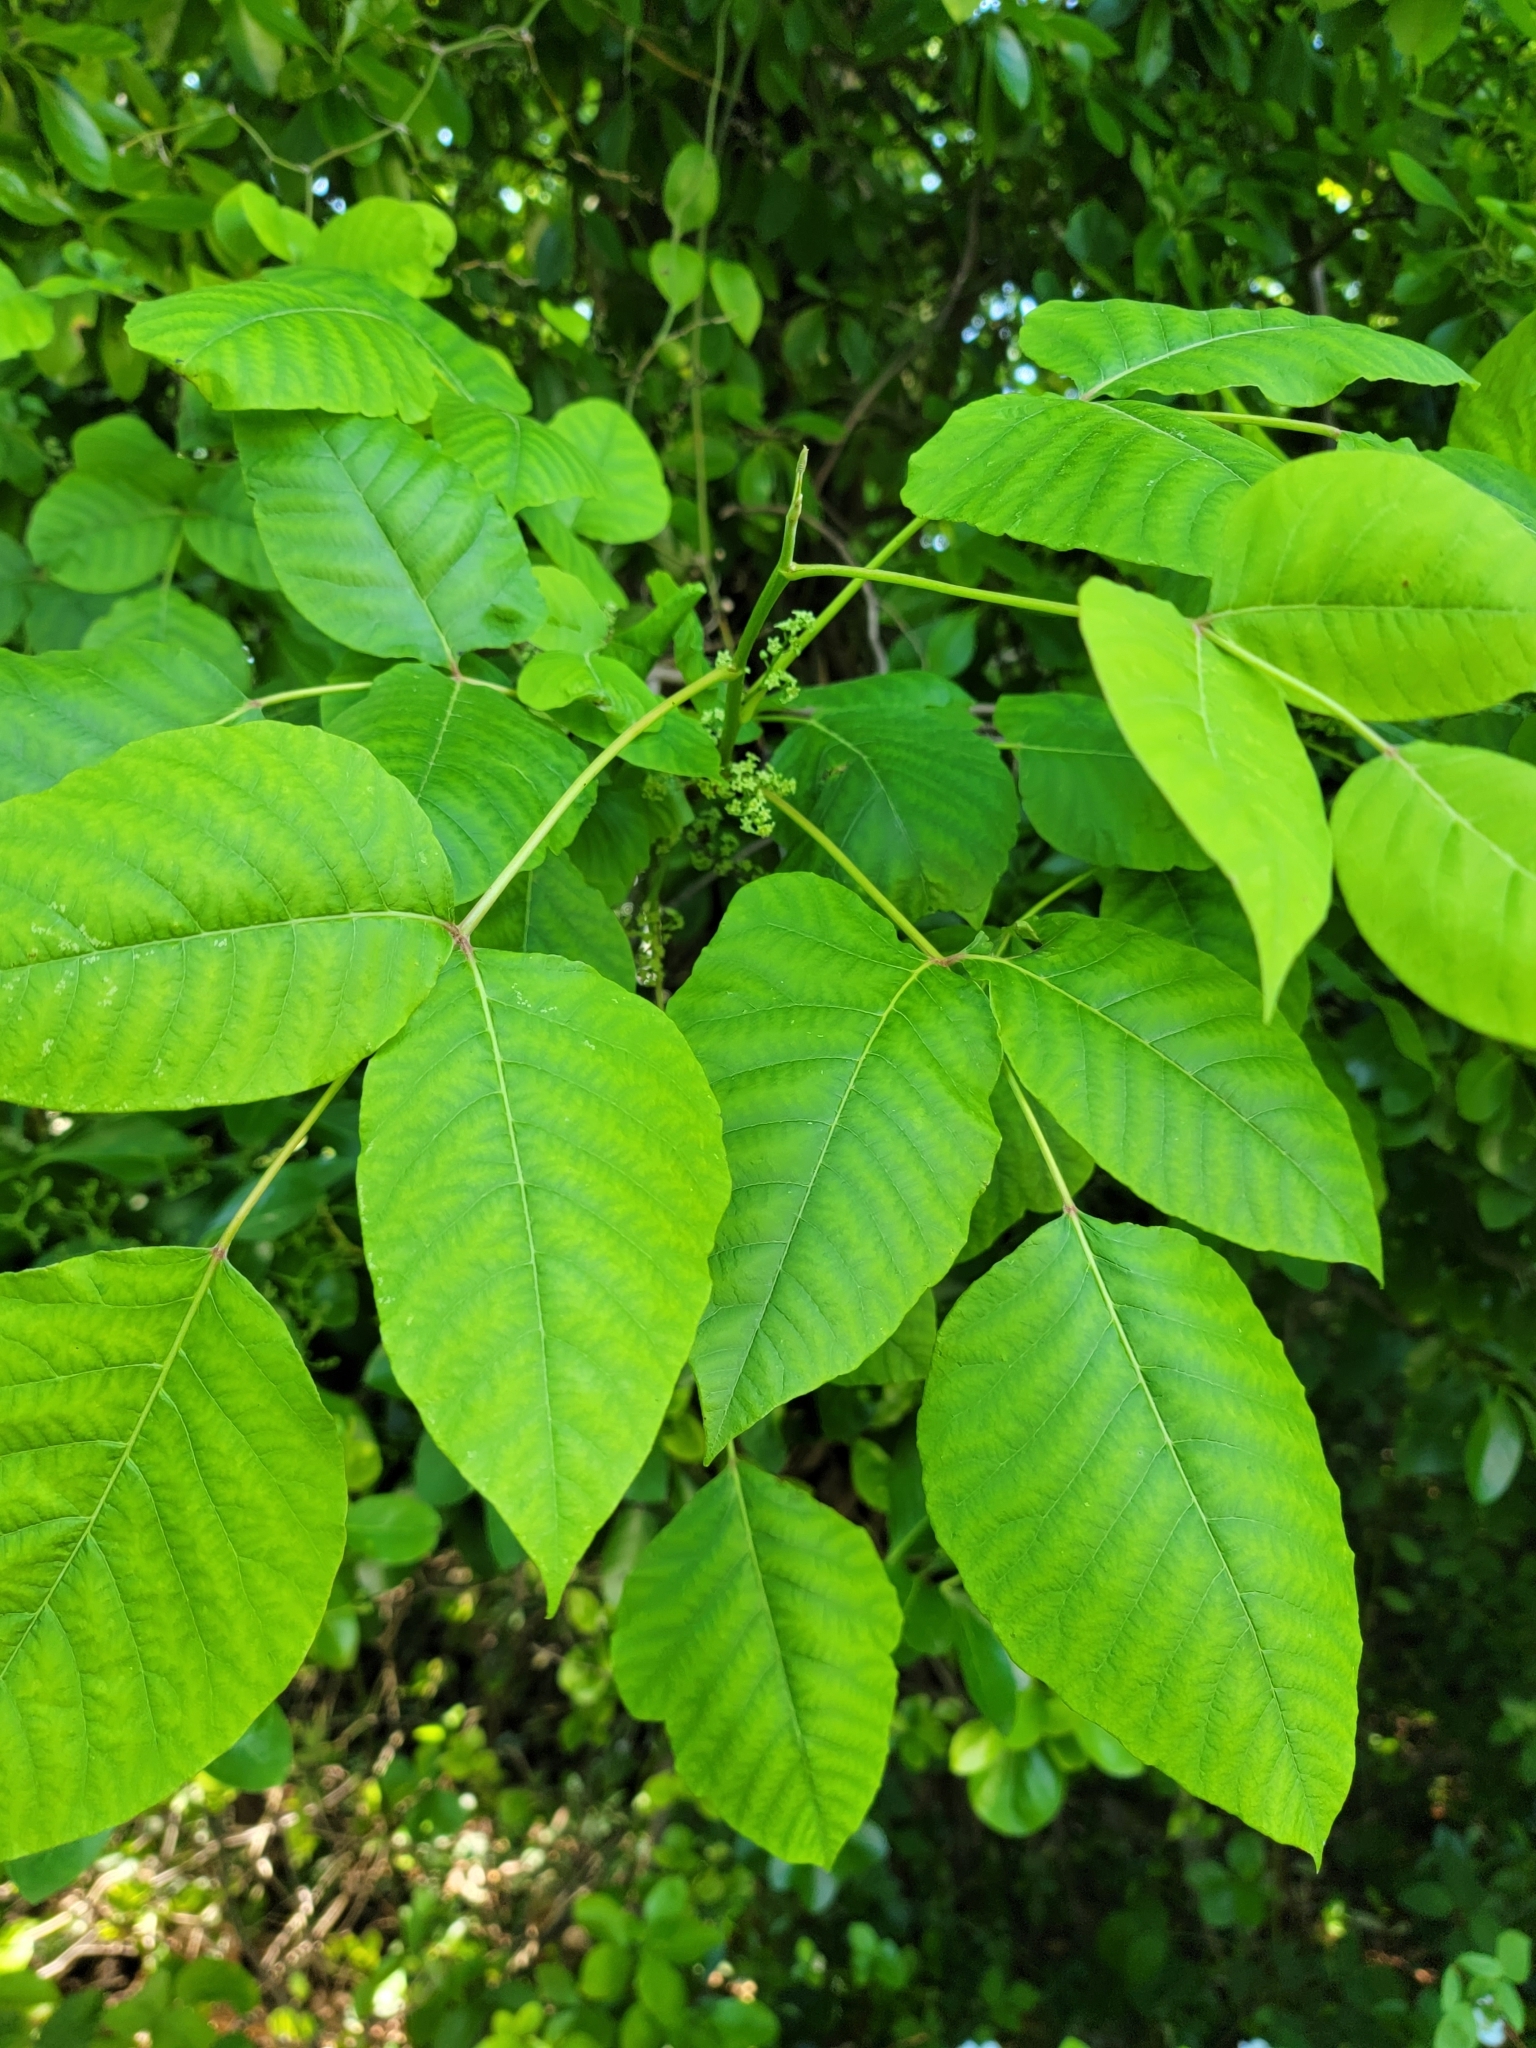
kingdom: Plantae
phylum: Tracheophyta
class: Magnoliopsida
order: Sapindales
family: Anacardiaceae
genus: Toxicodendron
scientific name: Toxicodendron radicans
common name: Poison ivy
